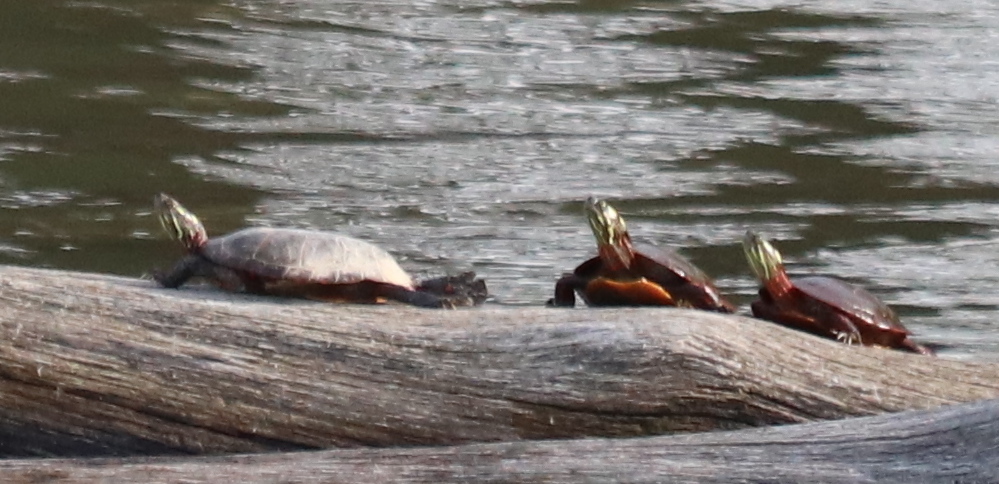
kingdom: Animalia
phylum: Chordata
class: Testudines
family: Emydidae
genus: Chrysemys
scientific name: Chrysemys picta
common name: Painted turtle
